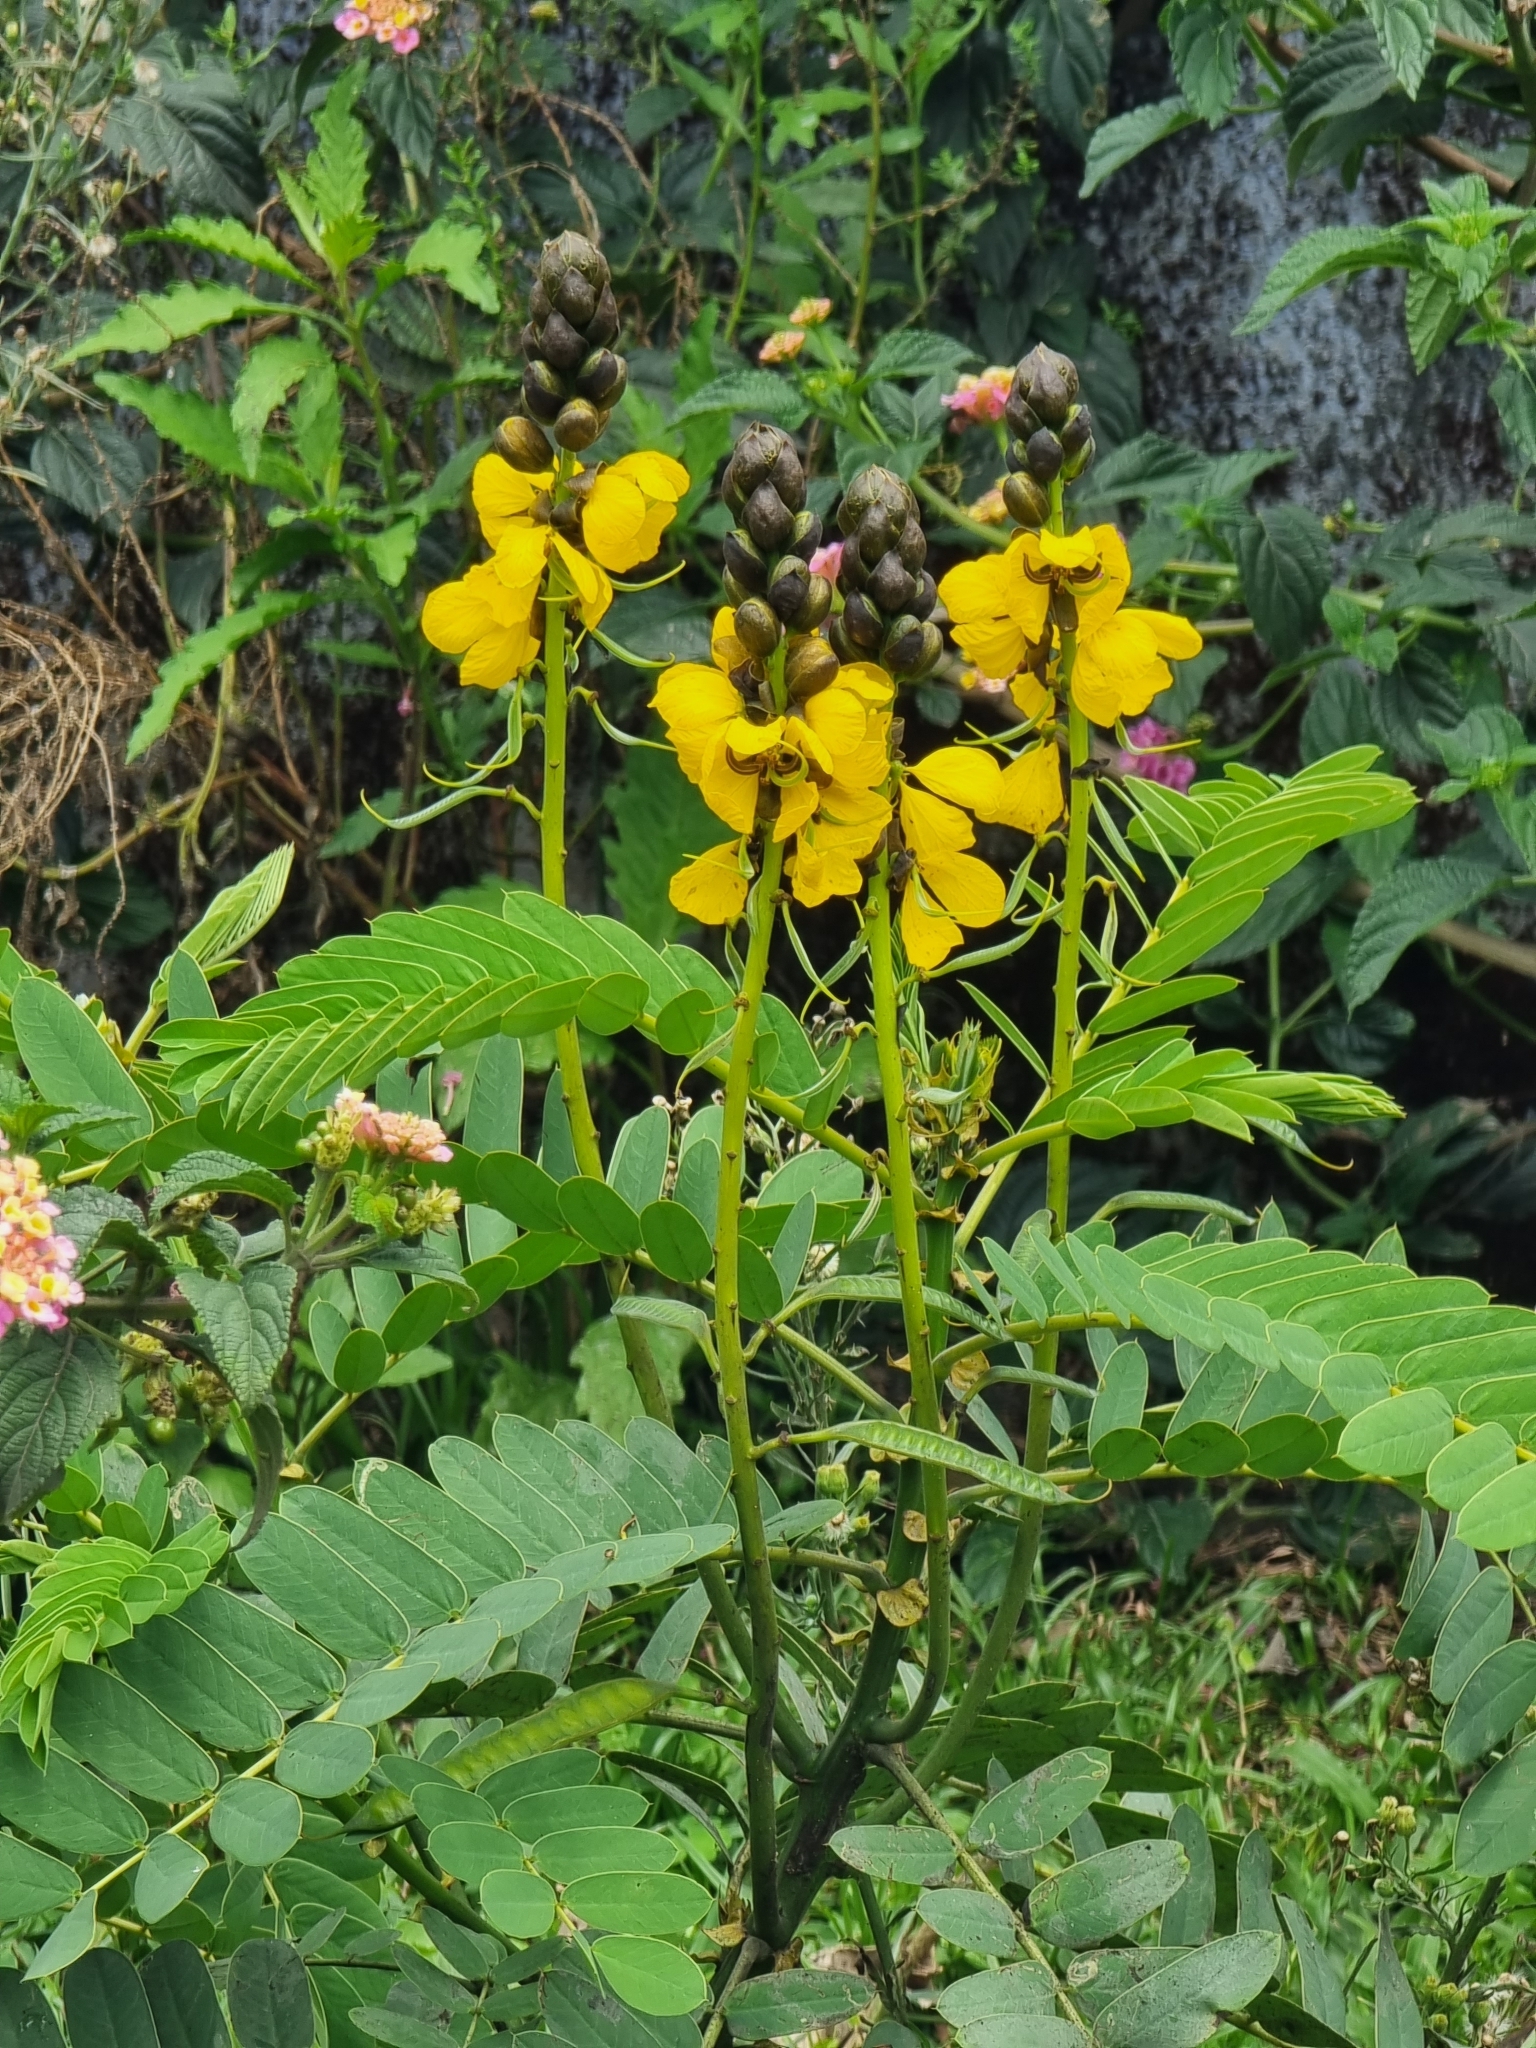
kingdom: Plantae
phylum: Tracheophyta
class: Magnoliopsida
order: Fabales
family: Fabaceae
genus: Senna
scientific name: Senna didymobotrya
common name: African senna
